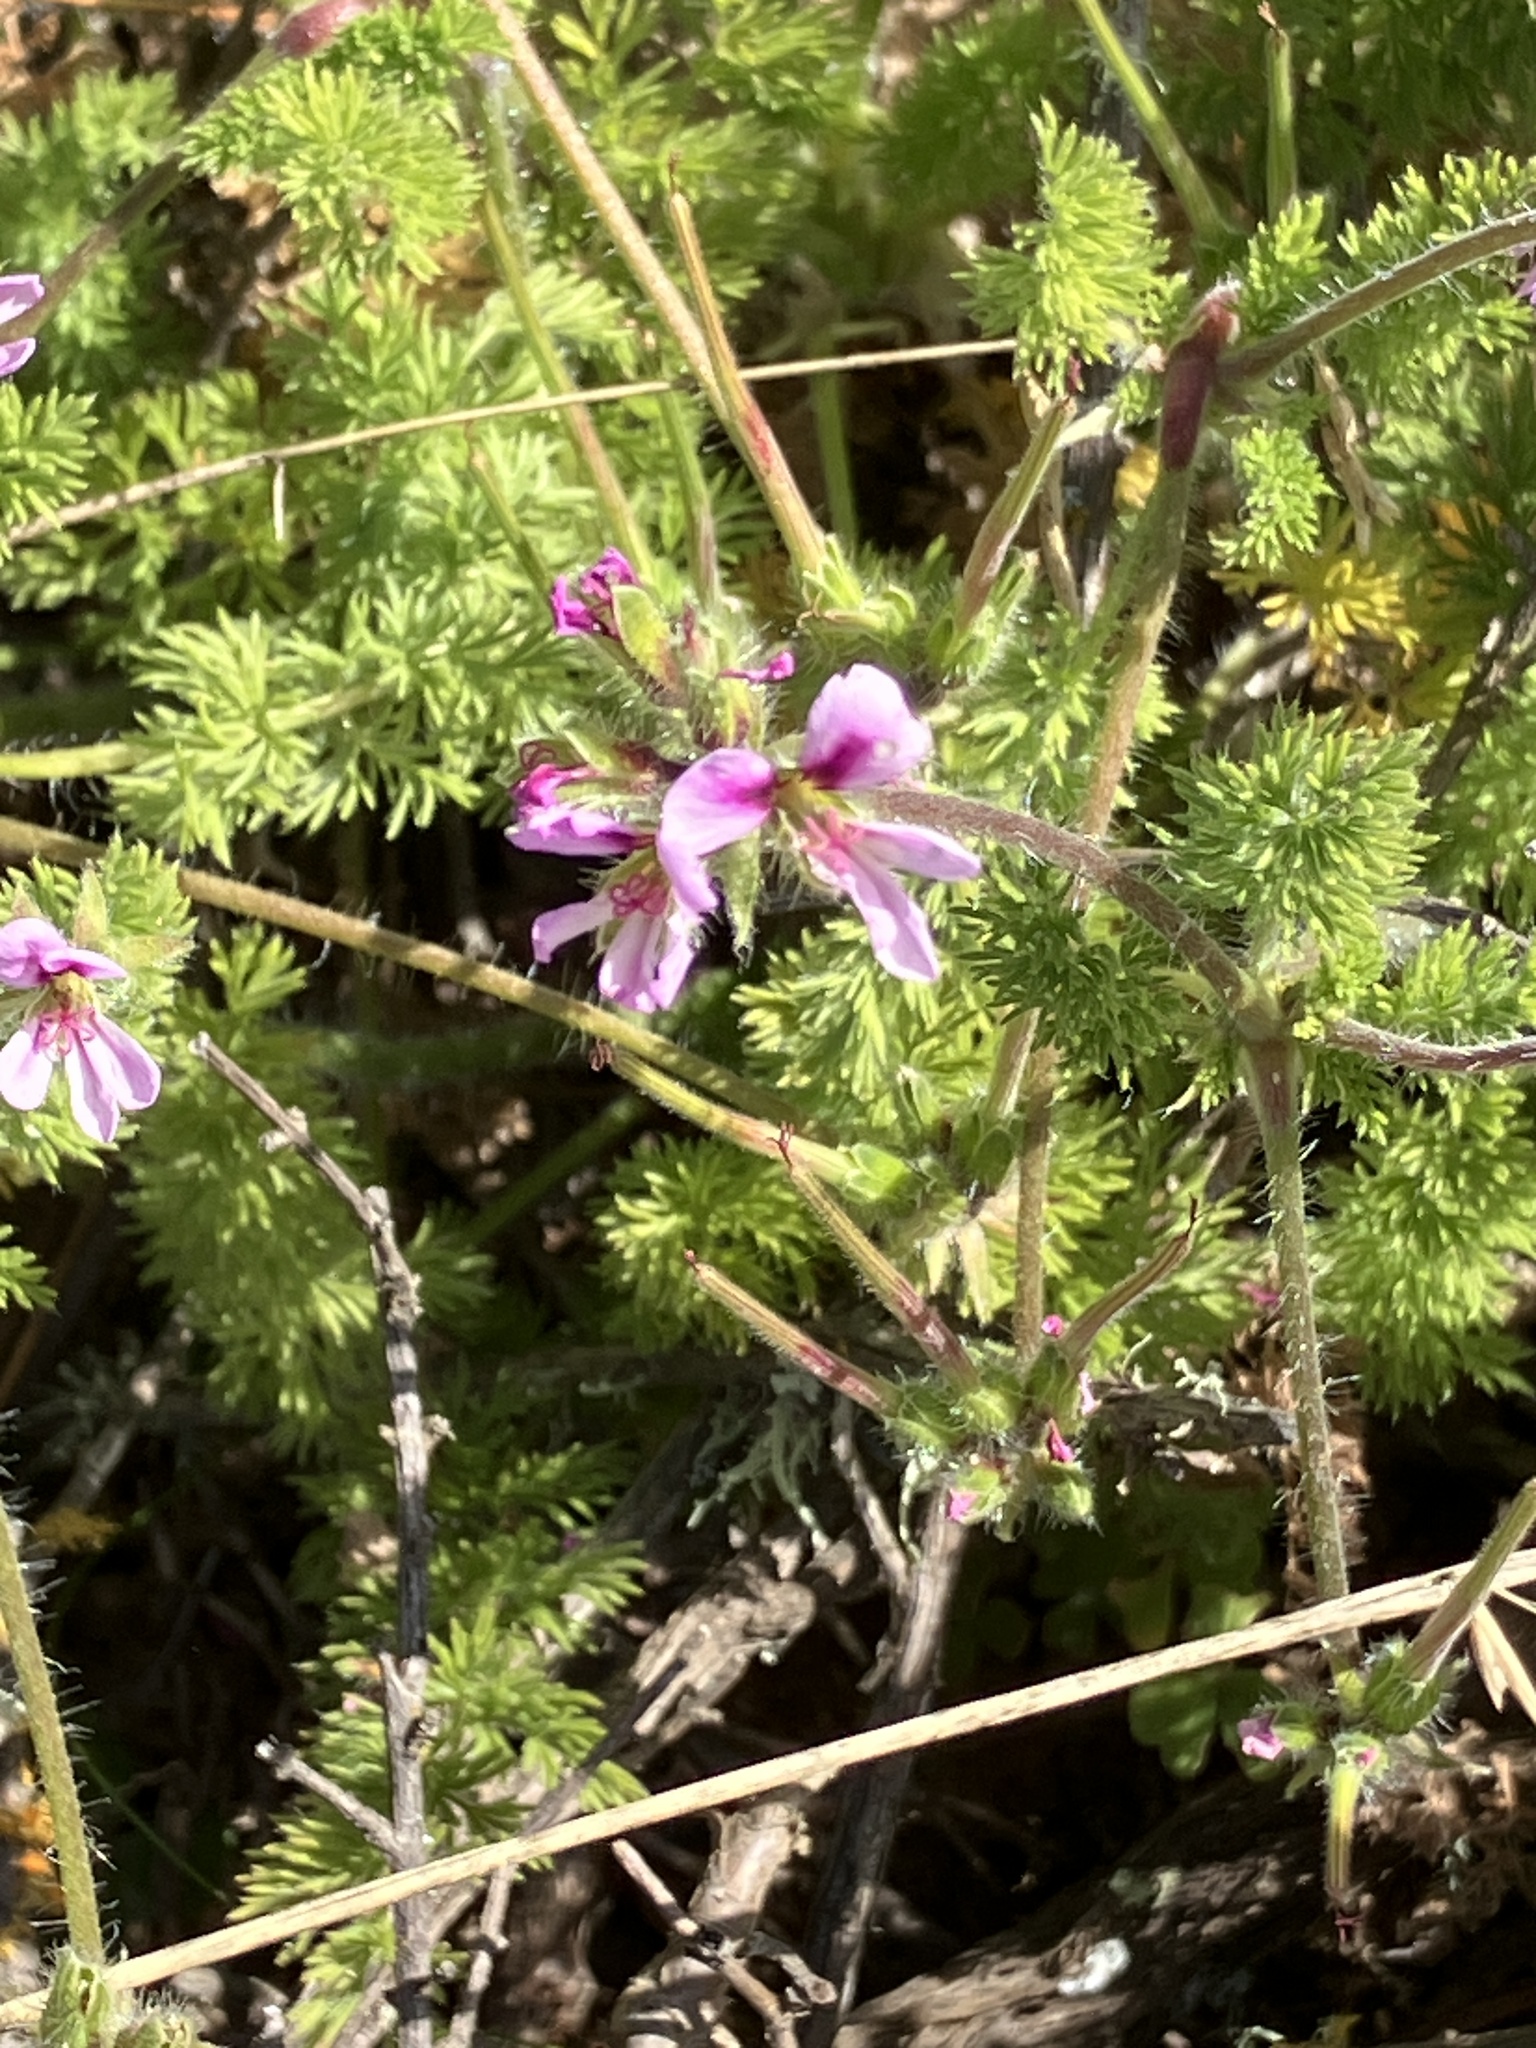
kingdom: Plantae
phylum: Tracheophyta
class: Magnoliopsida
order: Geraniales
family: Geraniaceae
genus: Pelargonium
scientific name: Pelargonium hirtum
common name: Fine-leaf pelargonium
